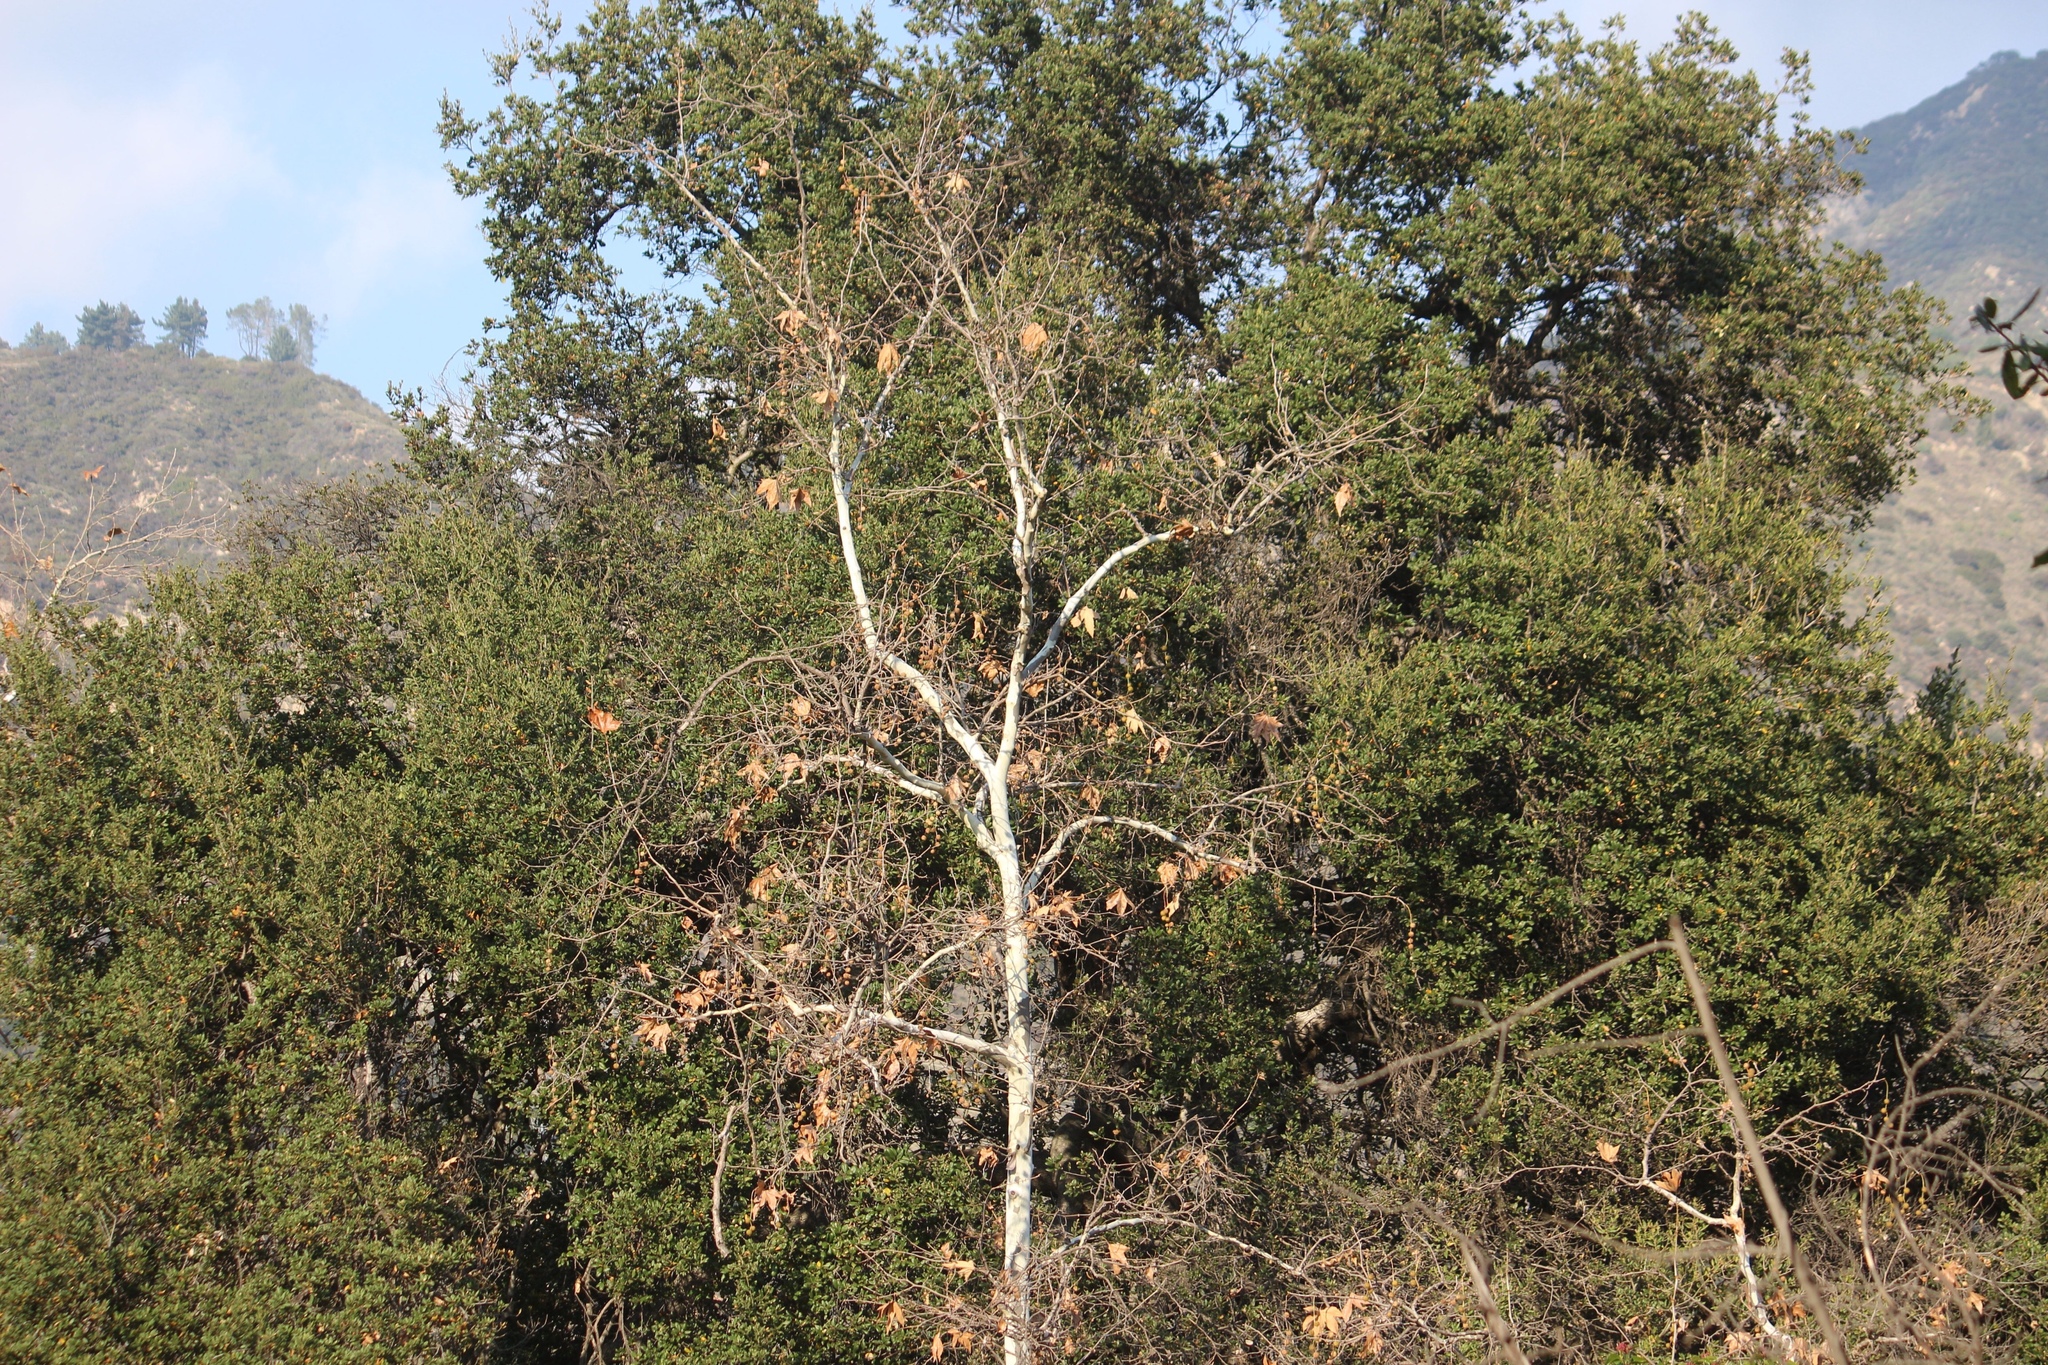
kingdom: Plantae
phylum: Tracheophyta
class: Magnoliopsida
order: Proteales
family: Platanaceae
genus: Platanus
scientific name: Platanus racemosa
